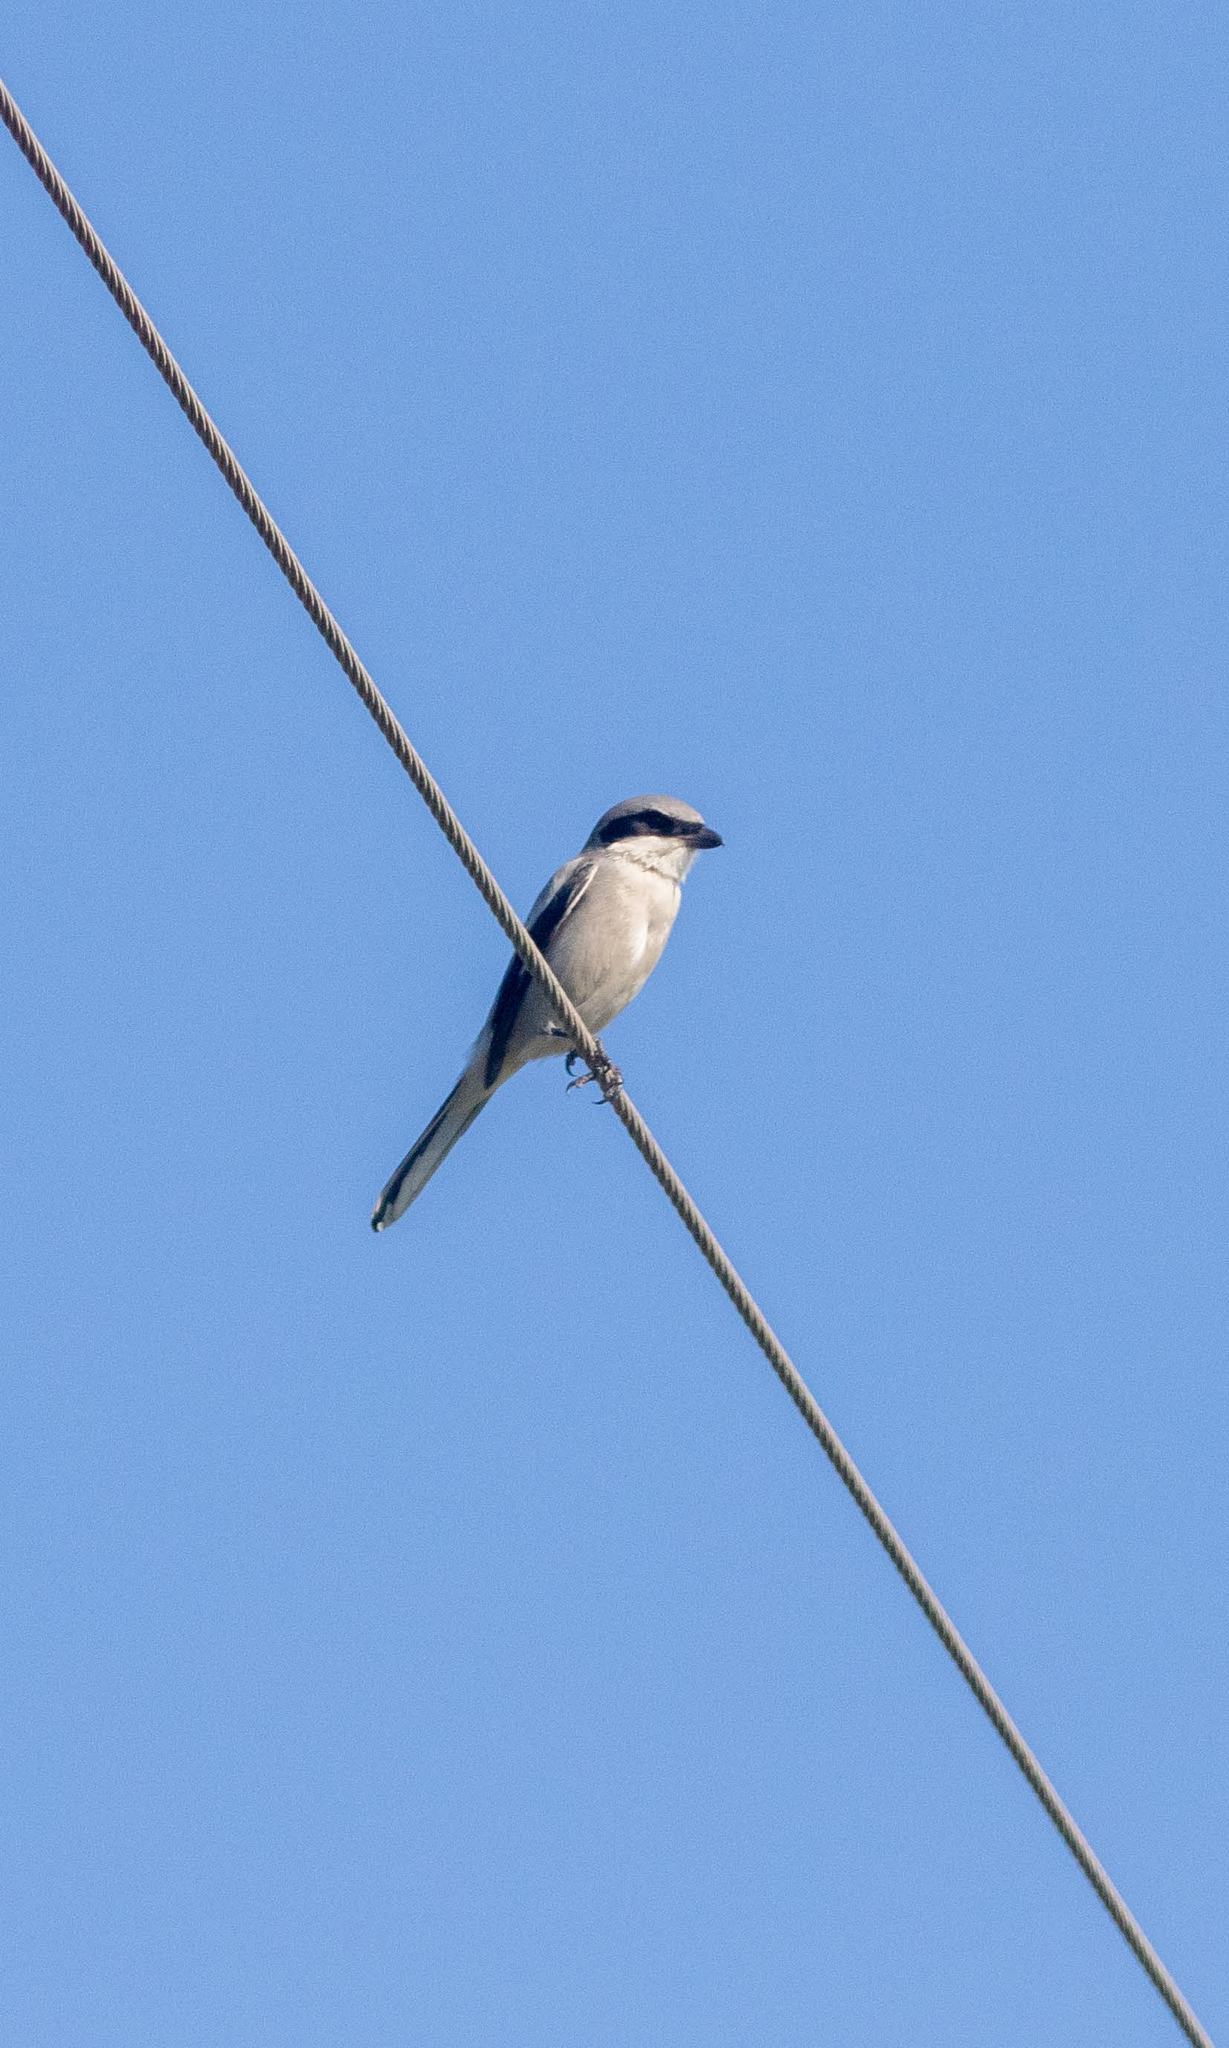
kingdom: Animalia
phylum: Chordata
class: Aves
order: Passeriformes
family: Laniidae
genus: Lanius
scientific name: Lanius ludovicianus
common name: Loggerhead shrike
